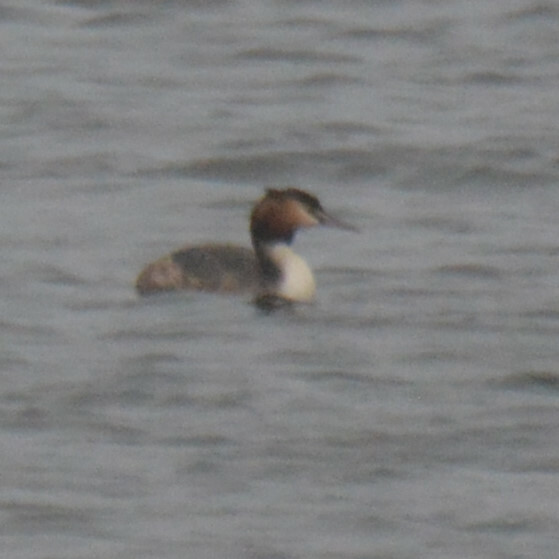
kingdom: Animalia
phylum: Chordata
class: Aves
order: Podicipediformes
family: Podicipedidae
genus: Podiceps
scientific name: Podiceps cristatus
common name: Great crested grebe
